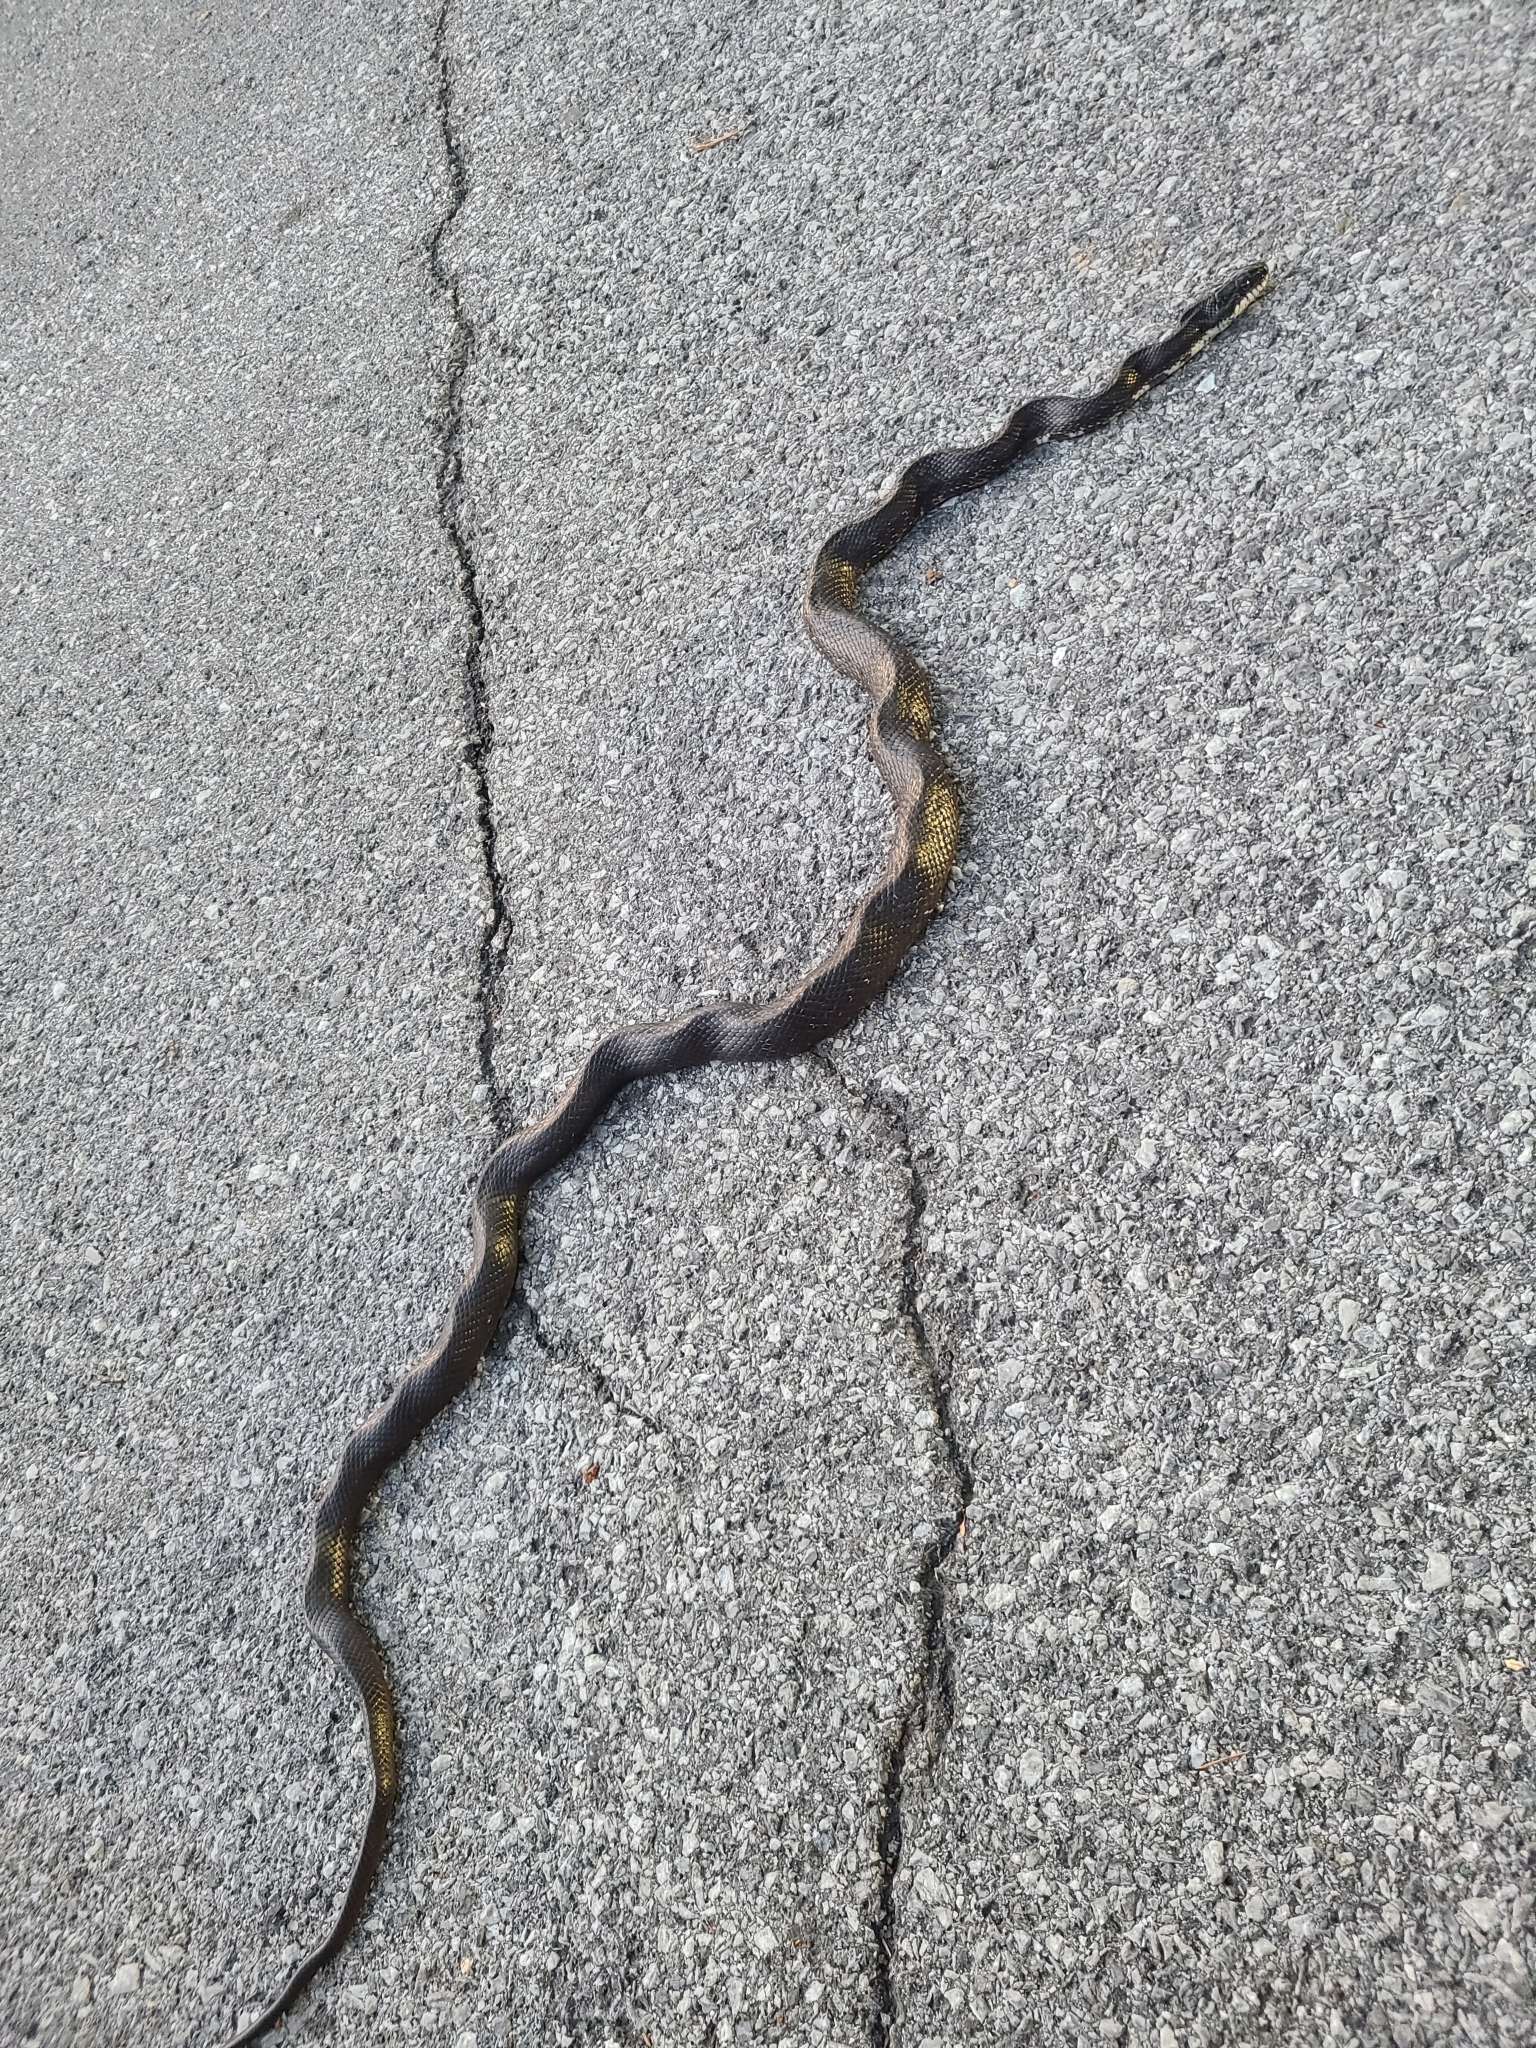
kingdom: Animalia
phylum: Chordata
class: Squamata
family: Colubridae
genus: Pantherophis
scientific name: Pantherophis alleghaniensis
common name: Eastern rat snake
